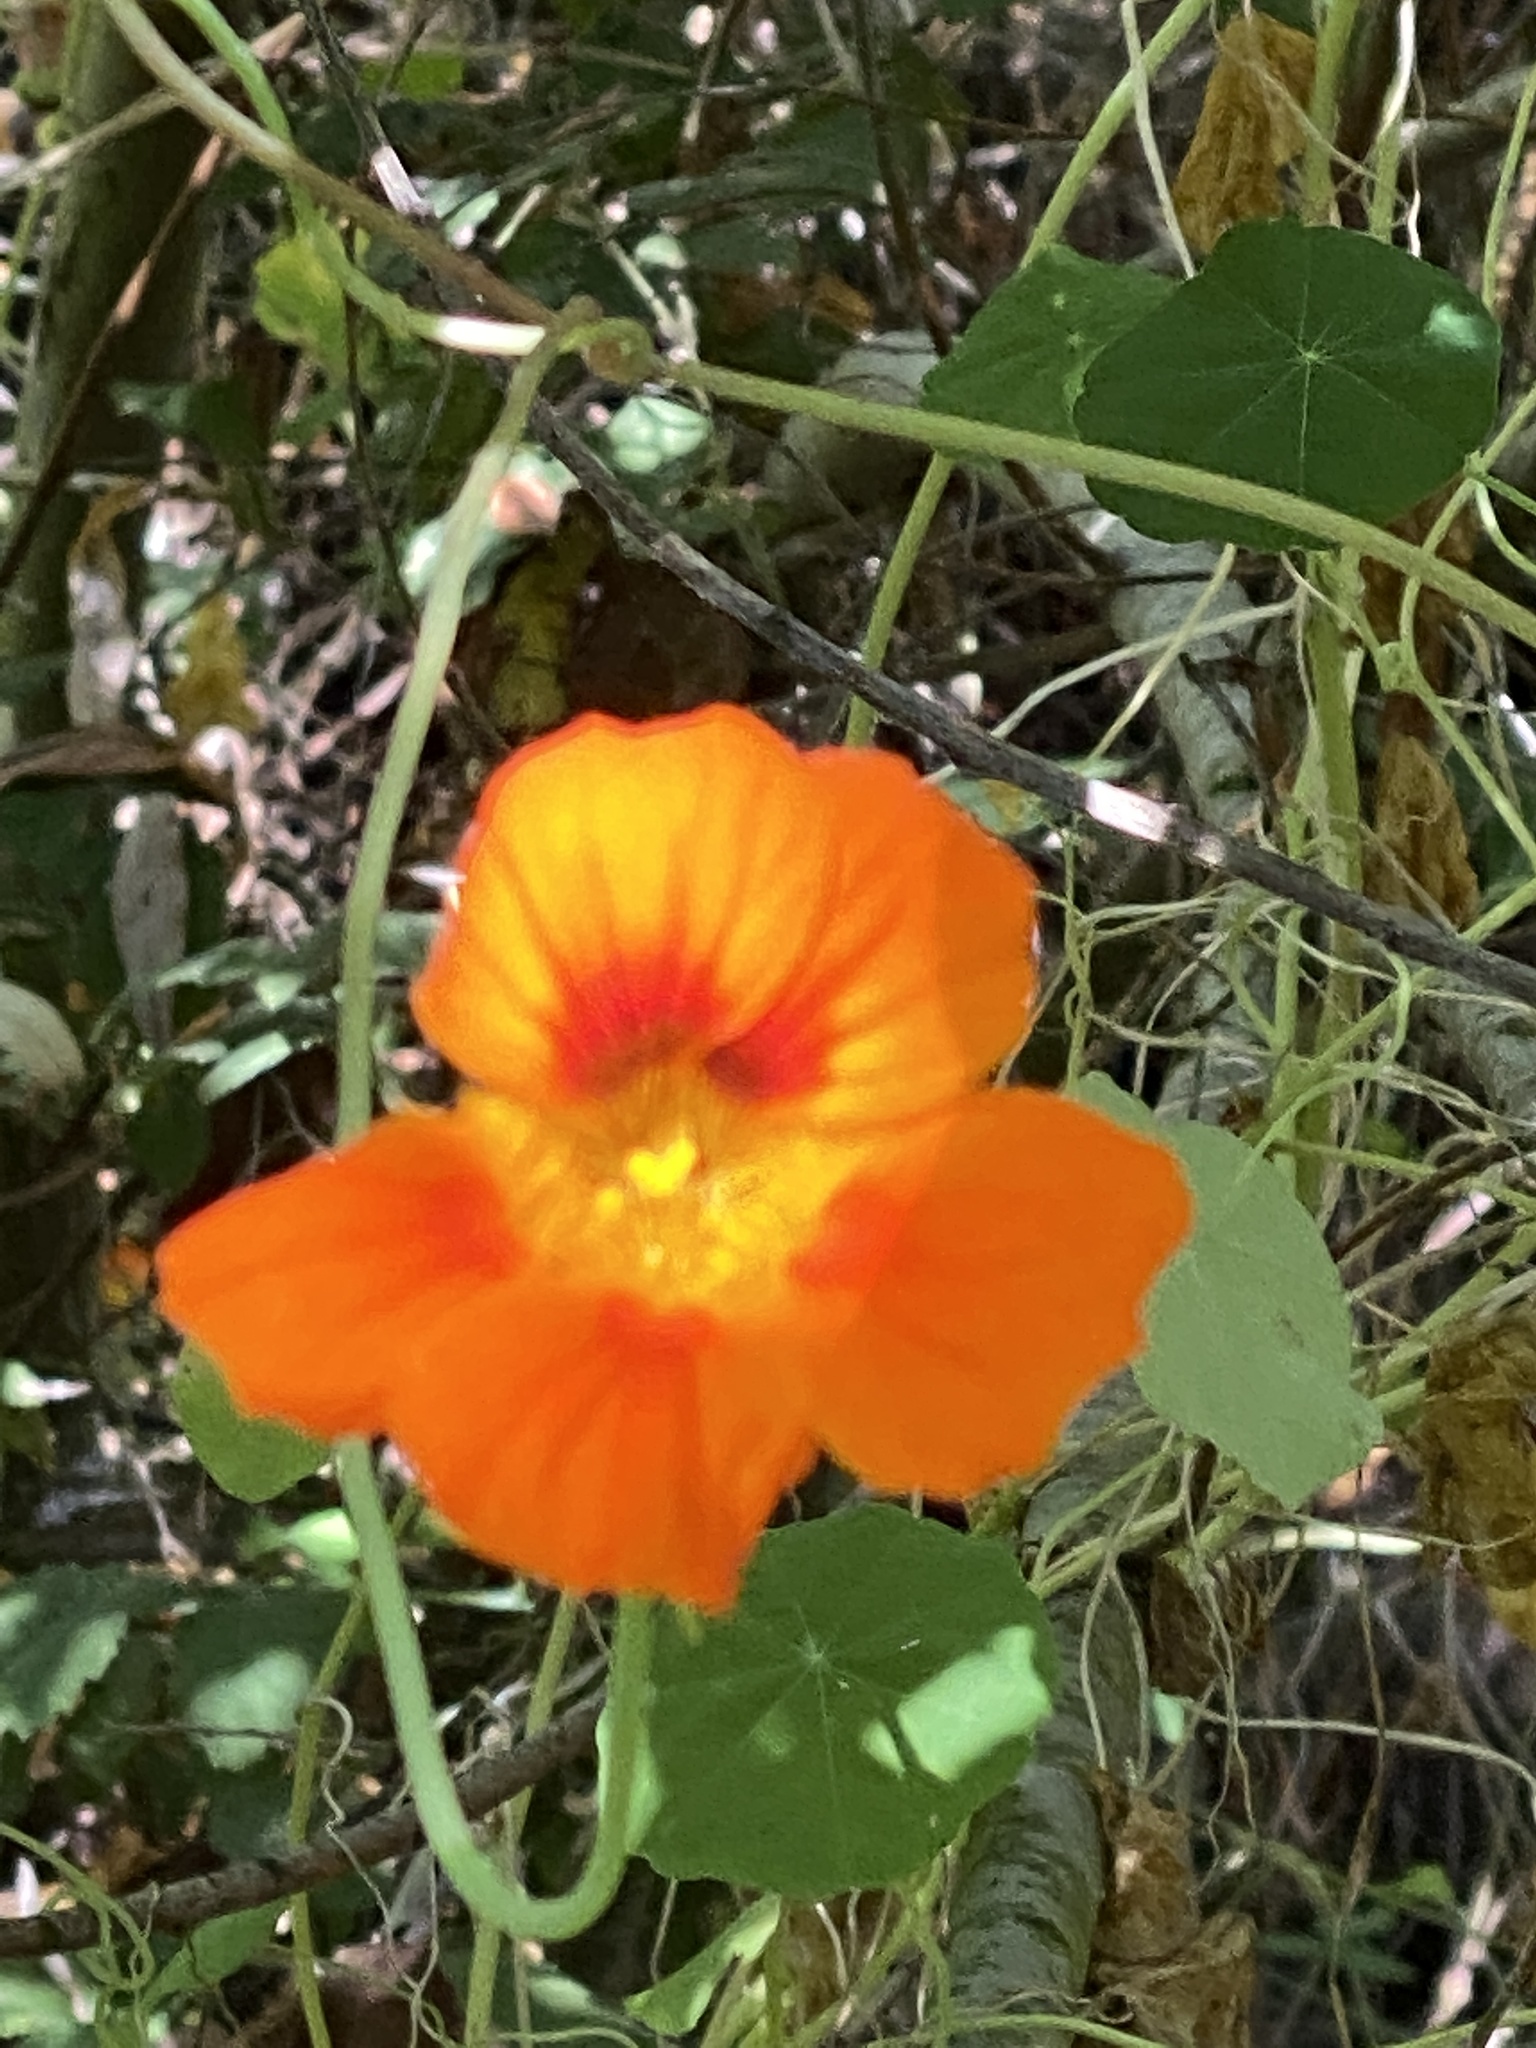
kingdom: Plantae
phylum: Tracheophyta
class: Magnoliopsida
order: Brassicales
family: Tropaeolaceae
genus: Tropaeolum
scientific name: Tropaeolum majus
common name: Nasturtium
